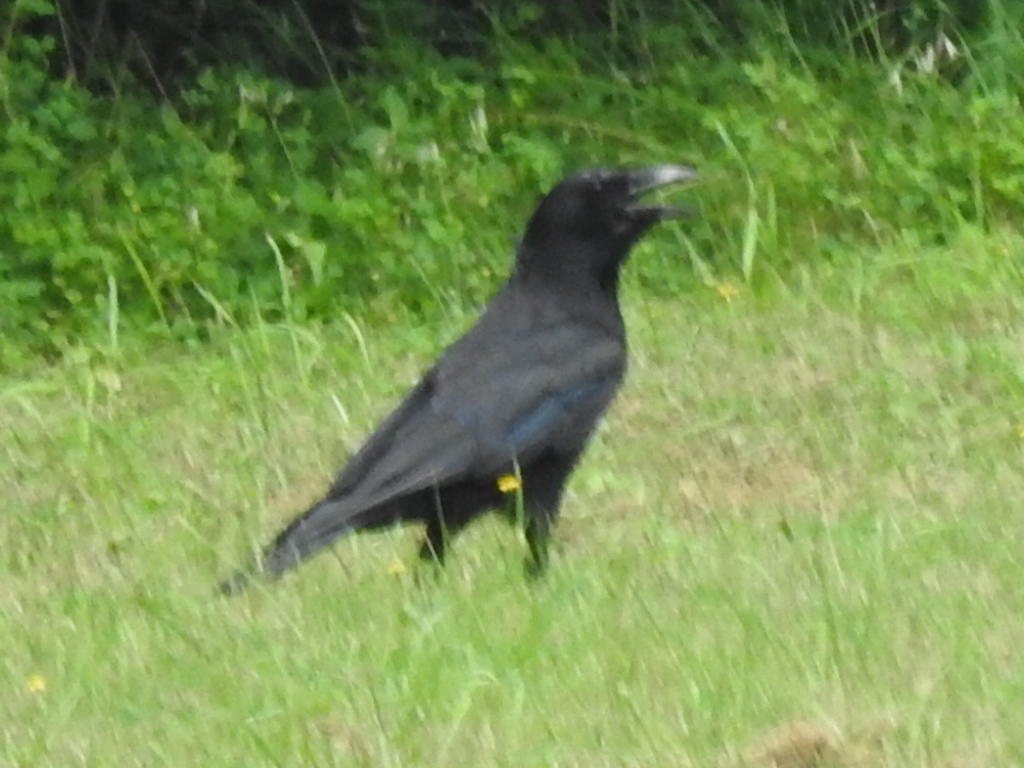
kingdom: Animalia
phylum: Chordata
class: Aves
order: Passeriformes
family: Corvidae
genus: Corvus
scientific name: Corvus brachyrhynchos
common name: American crow
